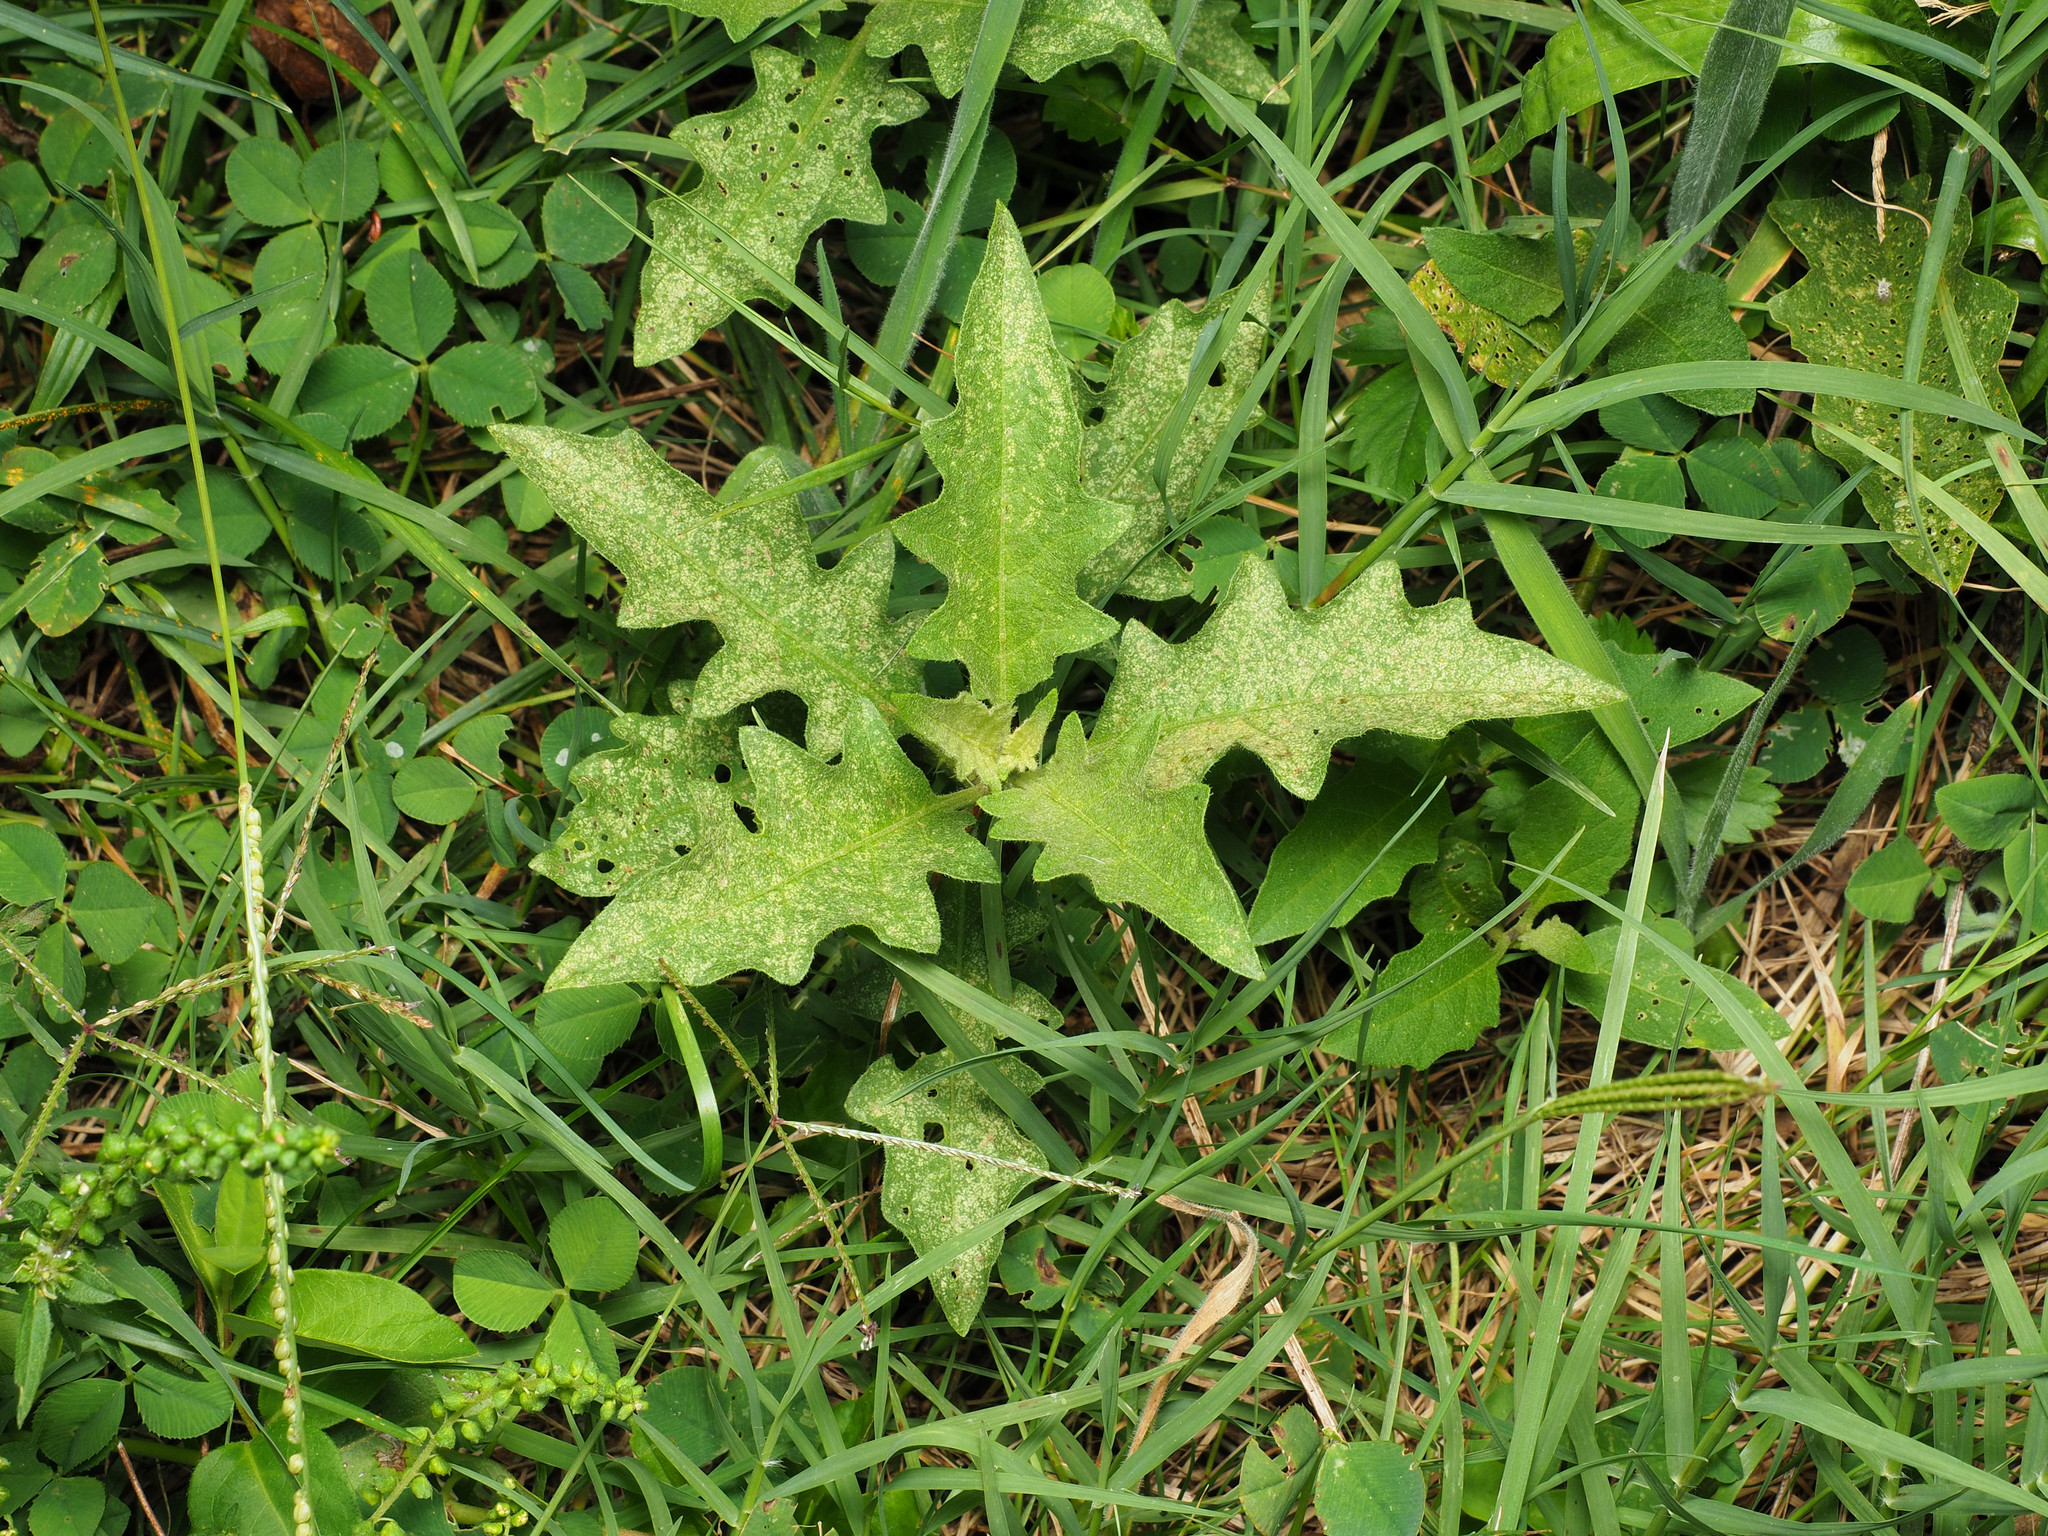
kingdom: Plantae
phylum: Tracheophyta
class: Magnoliopsida
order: Solanales
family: Solanaceae
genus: Solanum
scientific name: Solanum carolinense
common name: Horse-nettle
